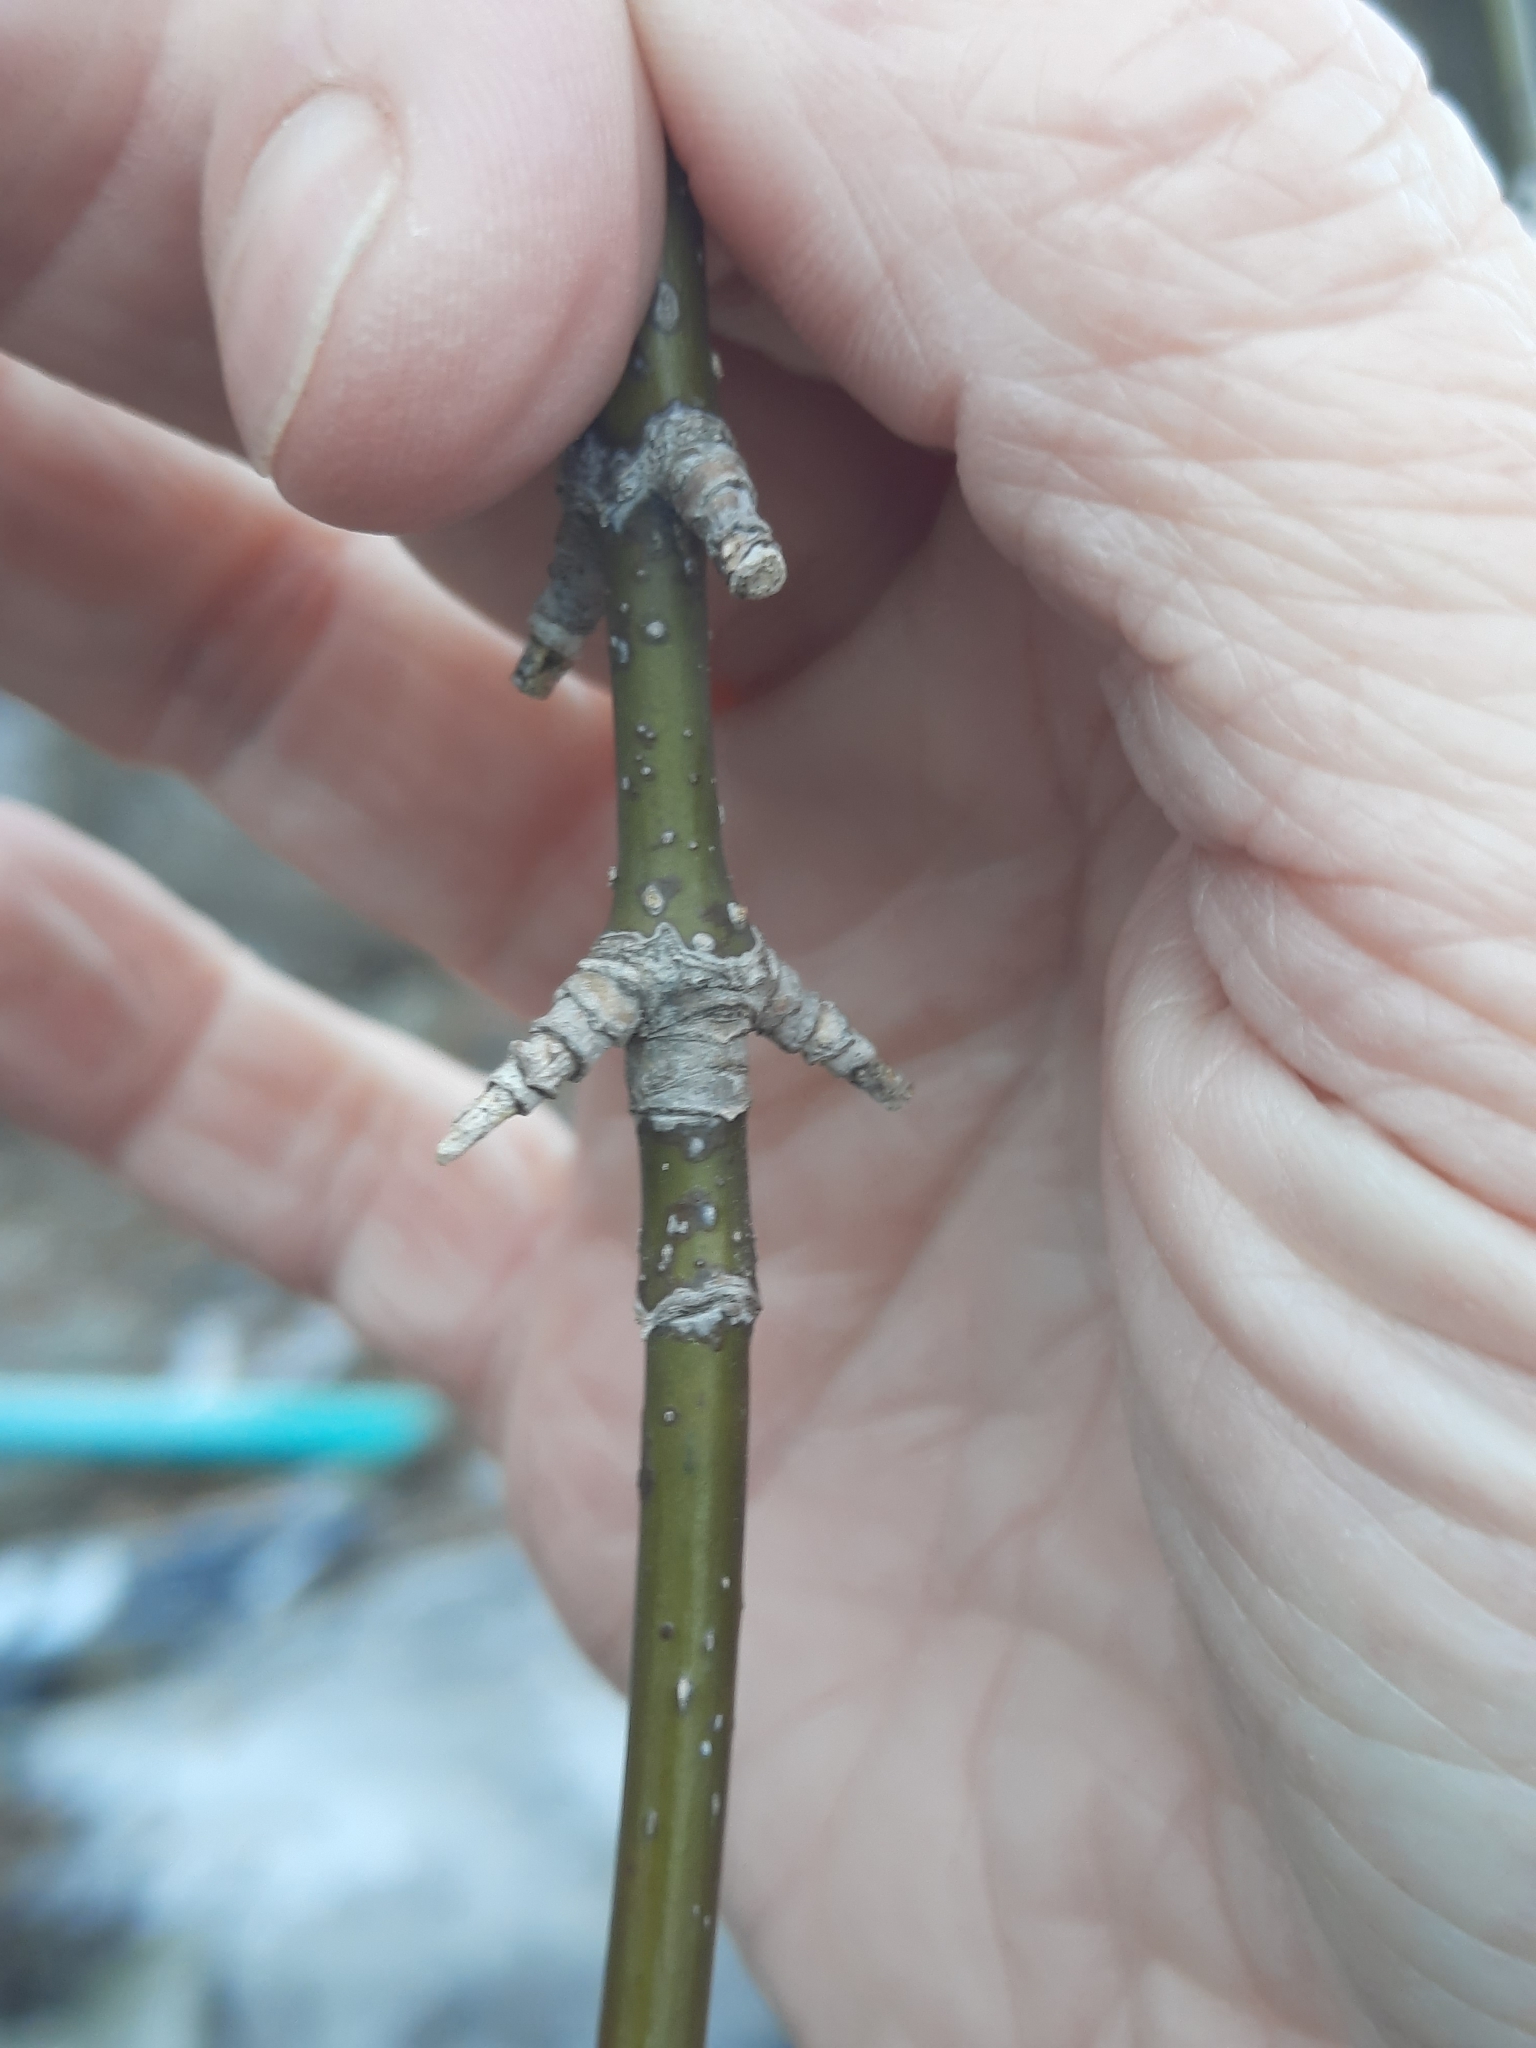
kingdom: Plantae
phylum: Tracheophyta
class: Magnoliopsida
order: Sapindales
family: Sapindaceae
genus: Acer
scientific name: Acer negundo
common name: Ashleaf maple
